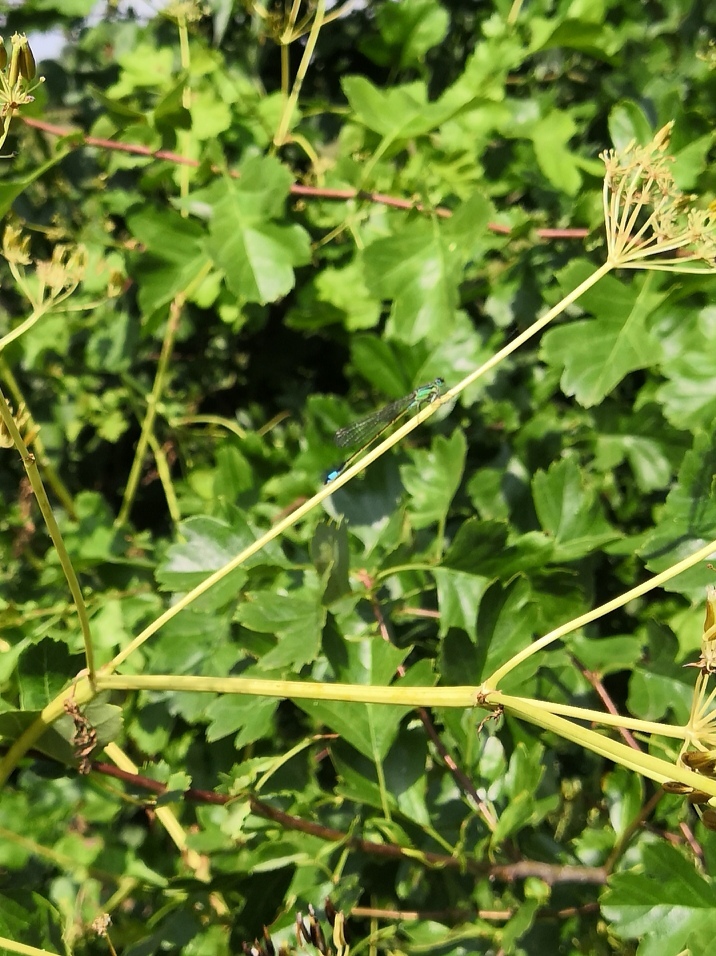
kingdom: Animalia
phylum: Arthropoda
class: Insecta
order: Odonata
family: Coenagrionidae
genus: Ischnura
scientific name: Ischnura elegans
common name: Blue-tailed damselfly
